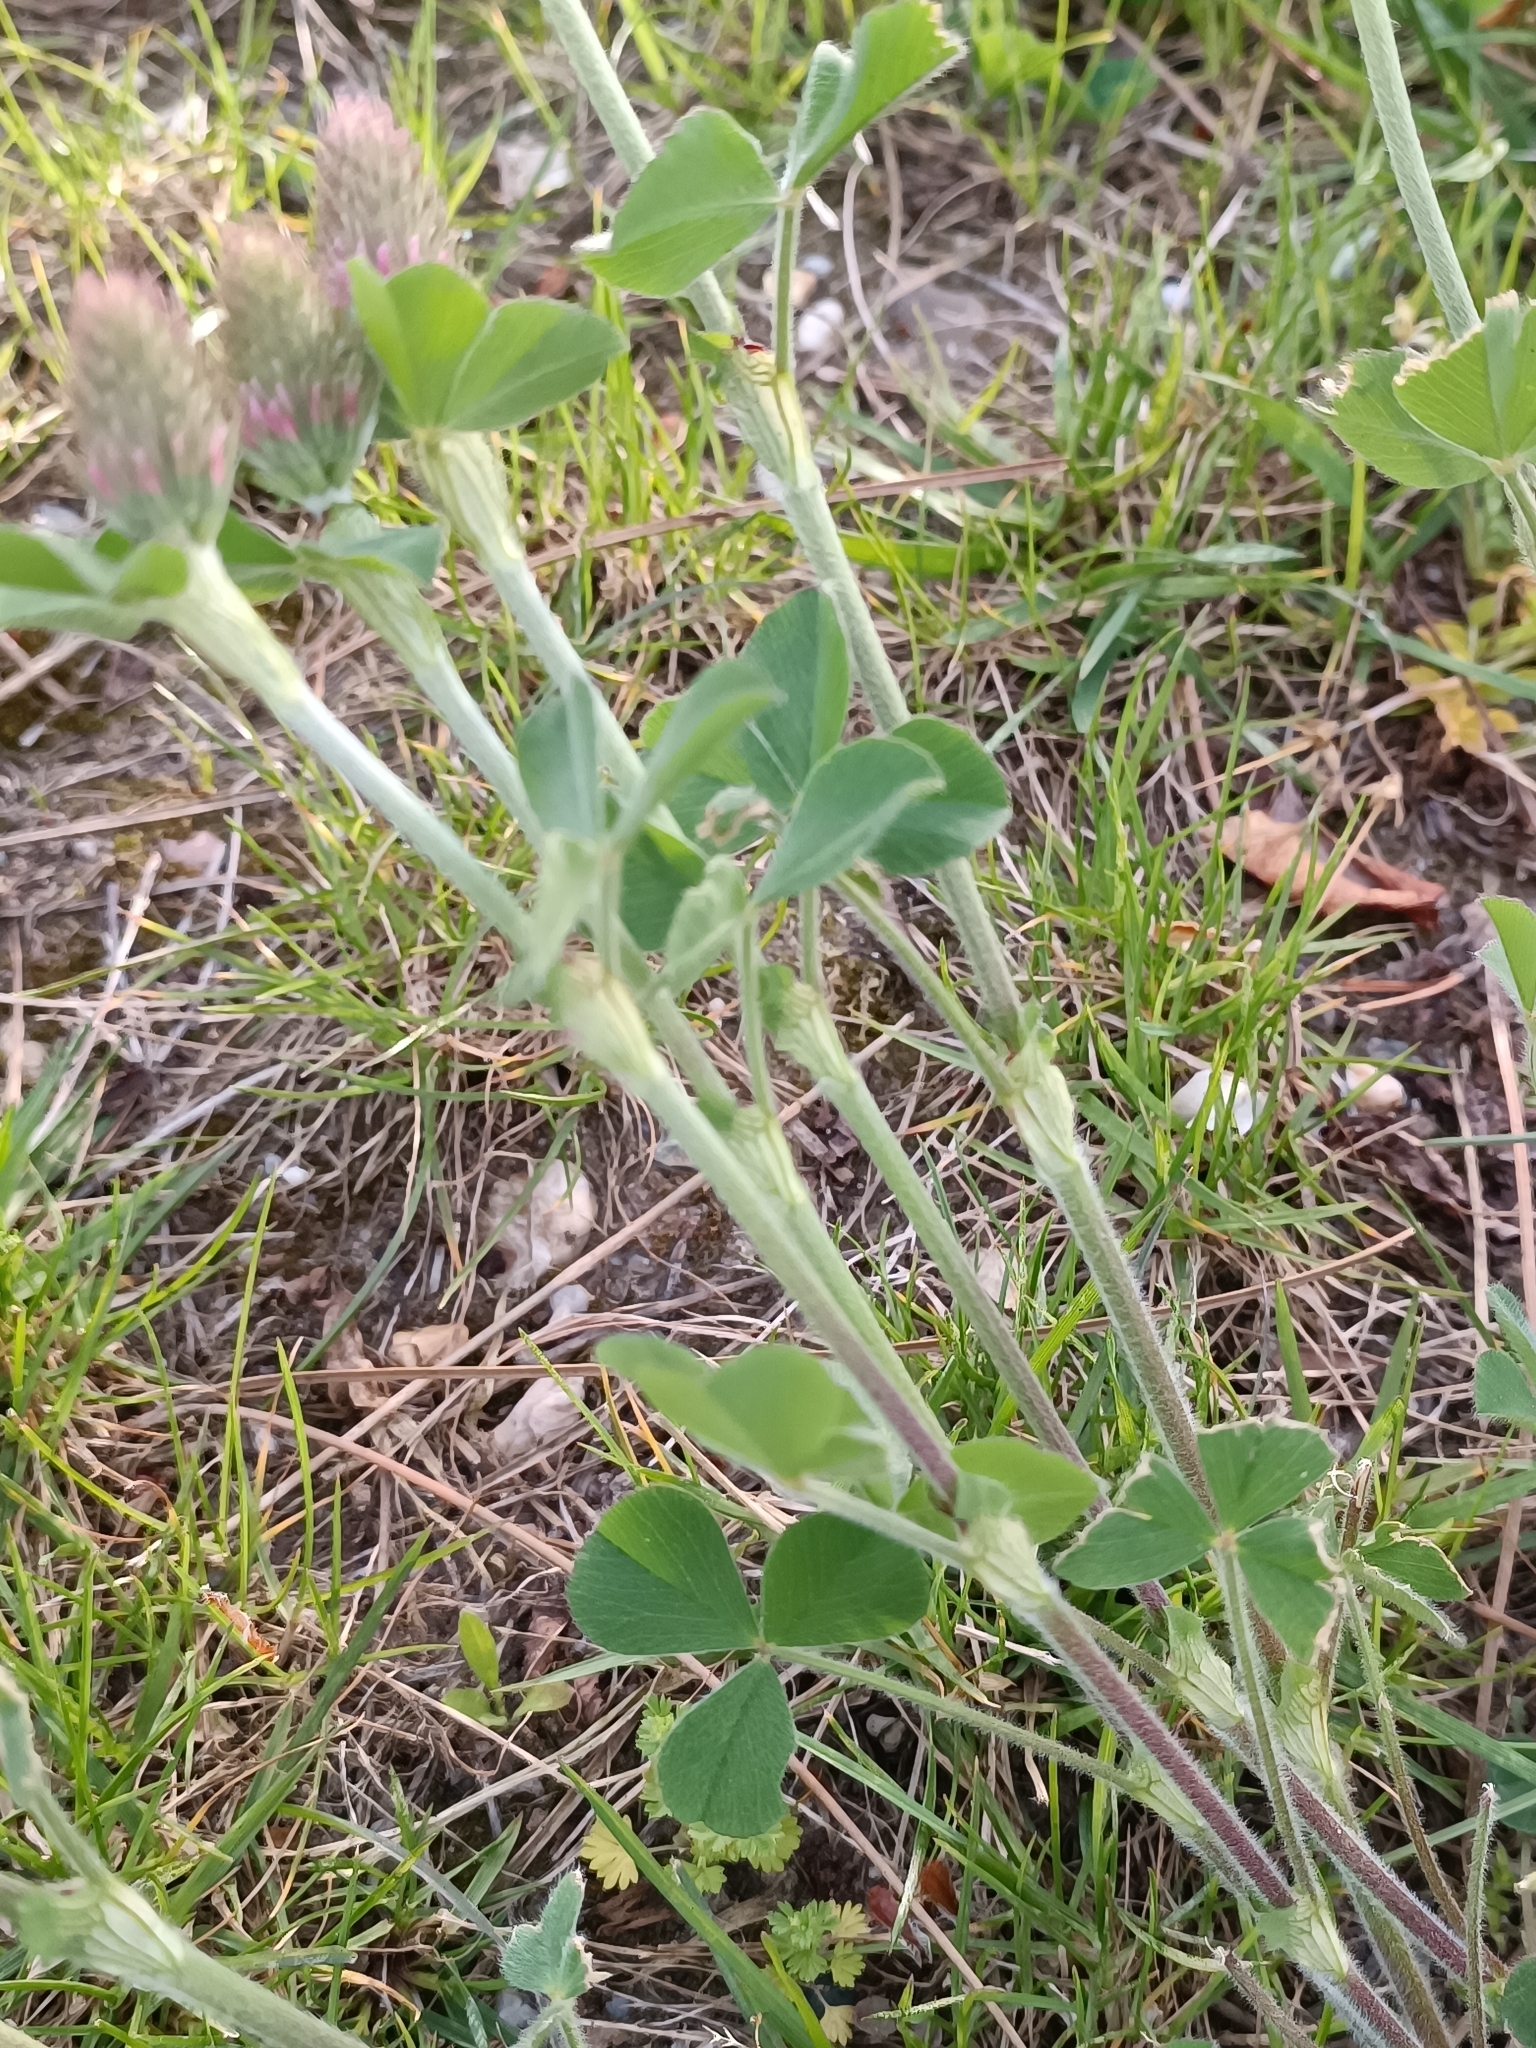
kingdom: Plantae
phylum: Tracheophyta
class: Magnoliopsida
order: Fabales
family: Fabaceae
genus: Trifolium
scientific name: Trifolium incarnatum
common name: Crimson clover
